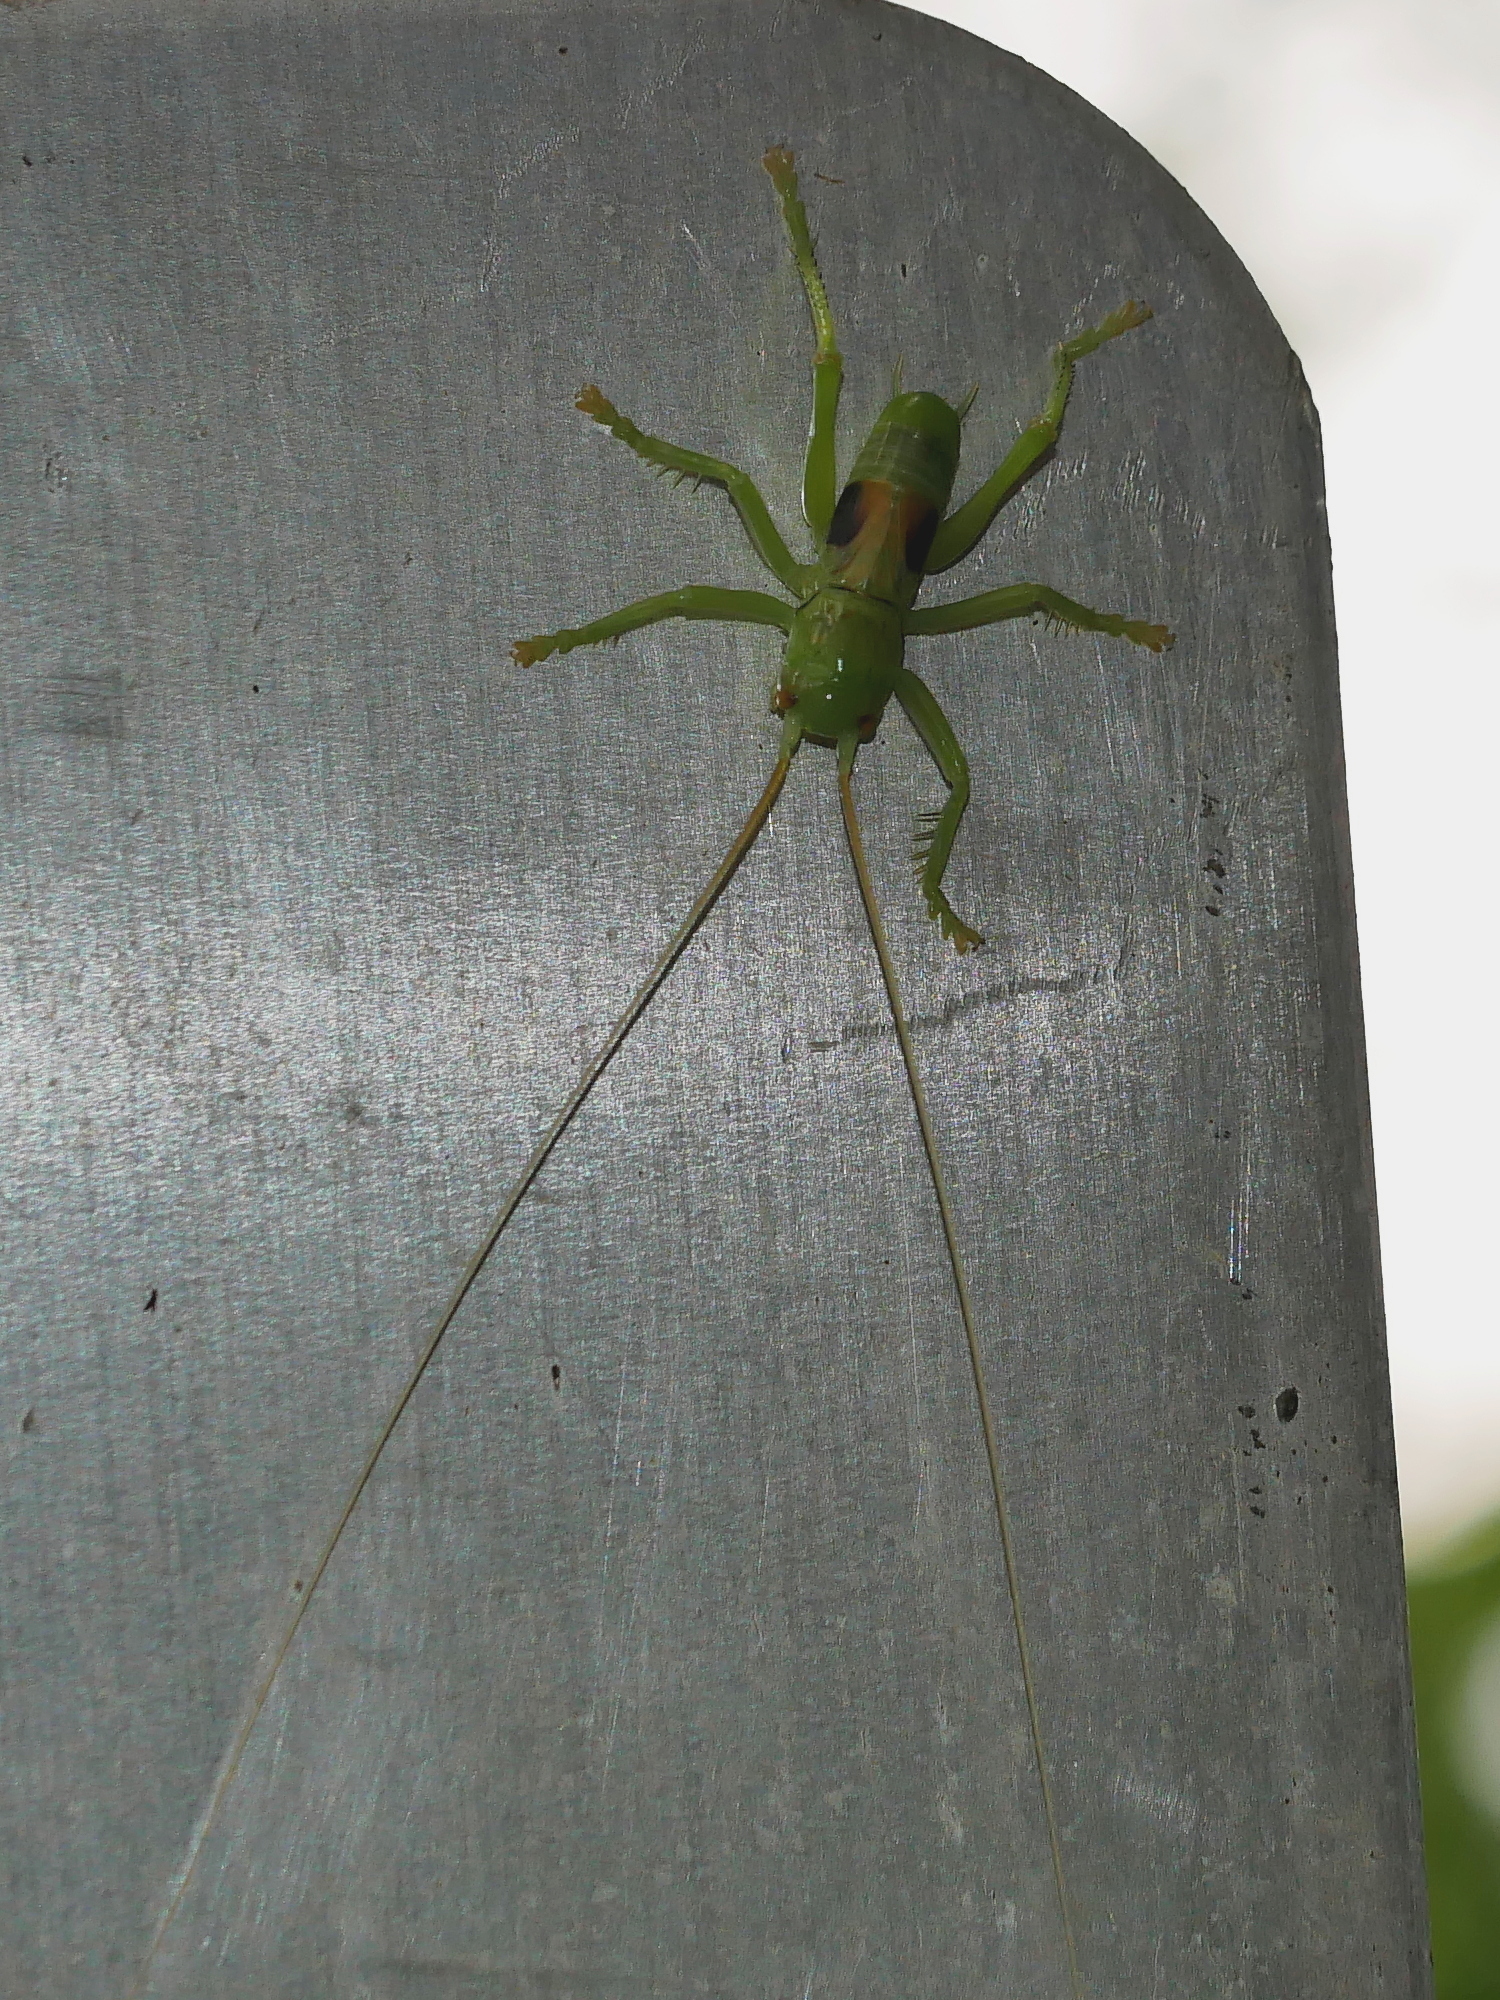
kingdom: Animalia
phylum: Arthropoda
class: Insecta
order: Orthoptera
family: Gryllacrididae
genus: Eugryllacris
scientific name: Eugryllacris cylindrigera
